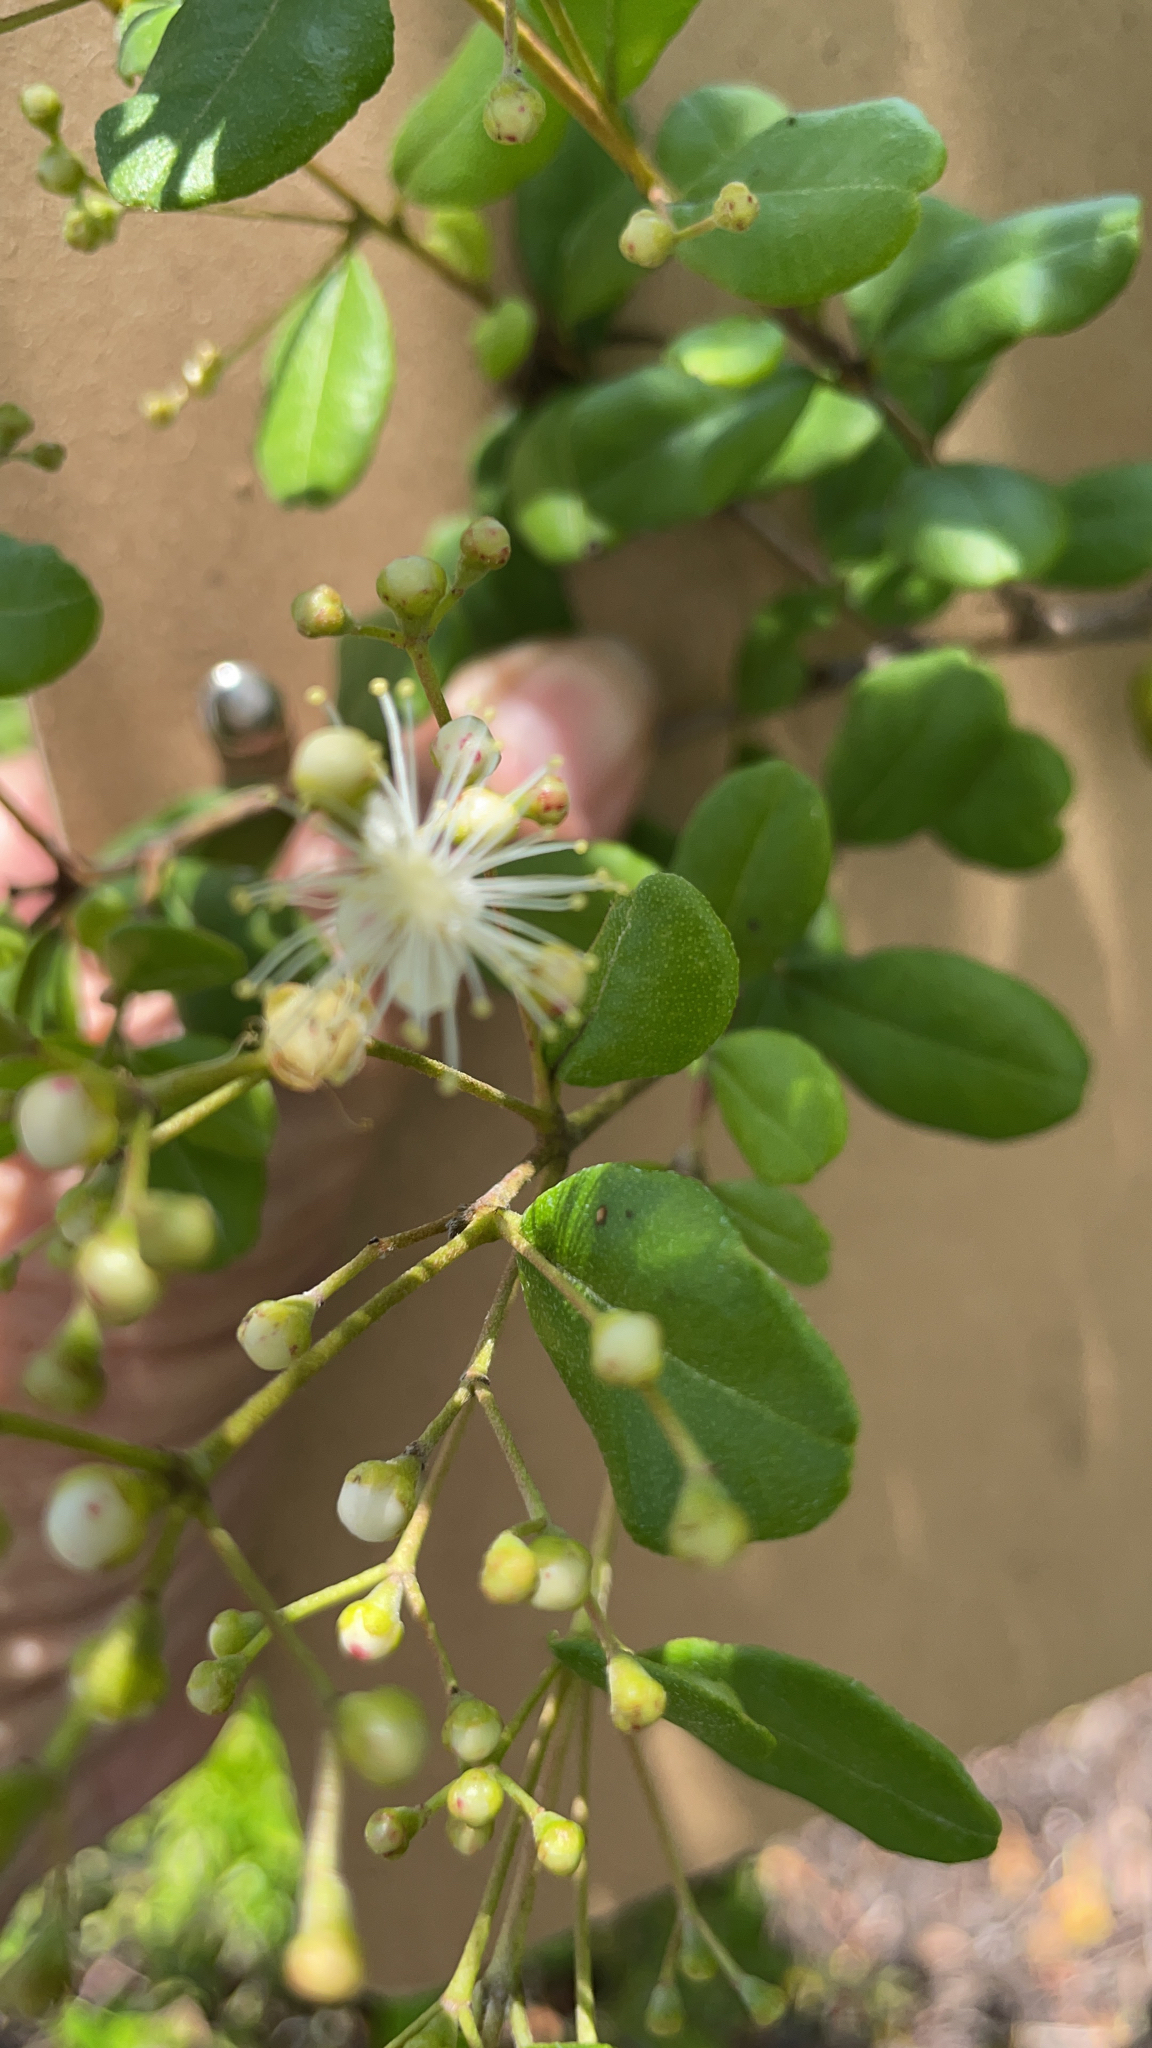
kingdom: Plantae
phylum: Tracheophyta
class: Magnoliopsida
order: Myrtales
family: Myrtaceae
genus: Myrcianthes
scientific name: Myrcianthes fragrans
